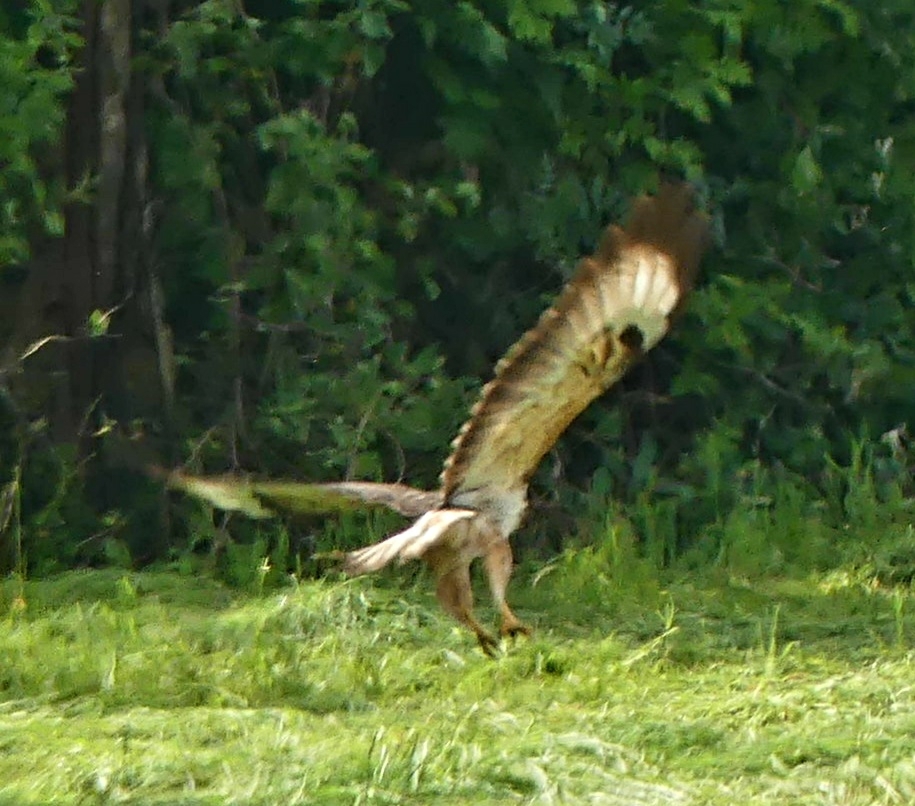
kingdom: Animalia
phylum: Chordata
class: Aves
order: Accipitriformes
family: Accipitridae
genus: Buteo
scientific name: Buteo buteo
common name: Common buzzard
